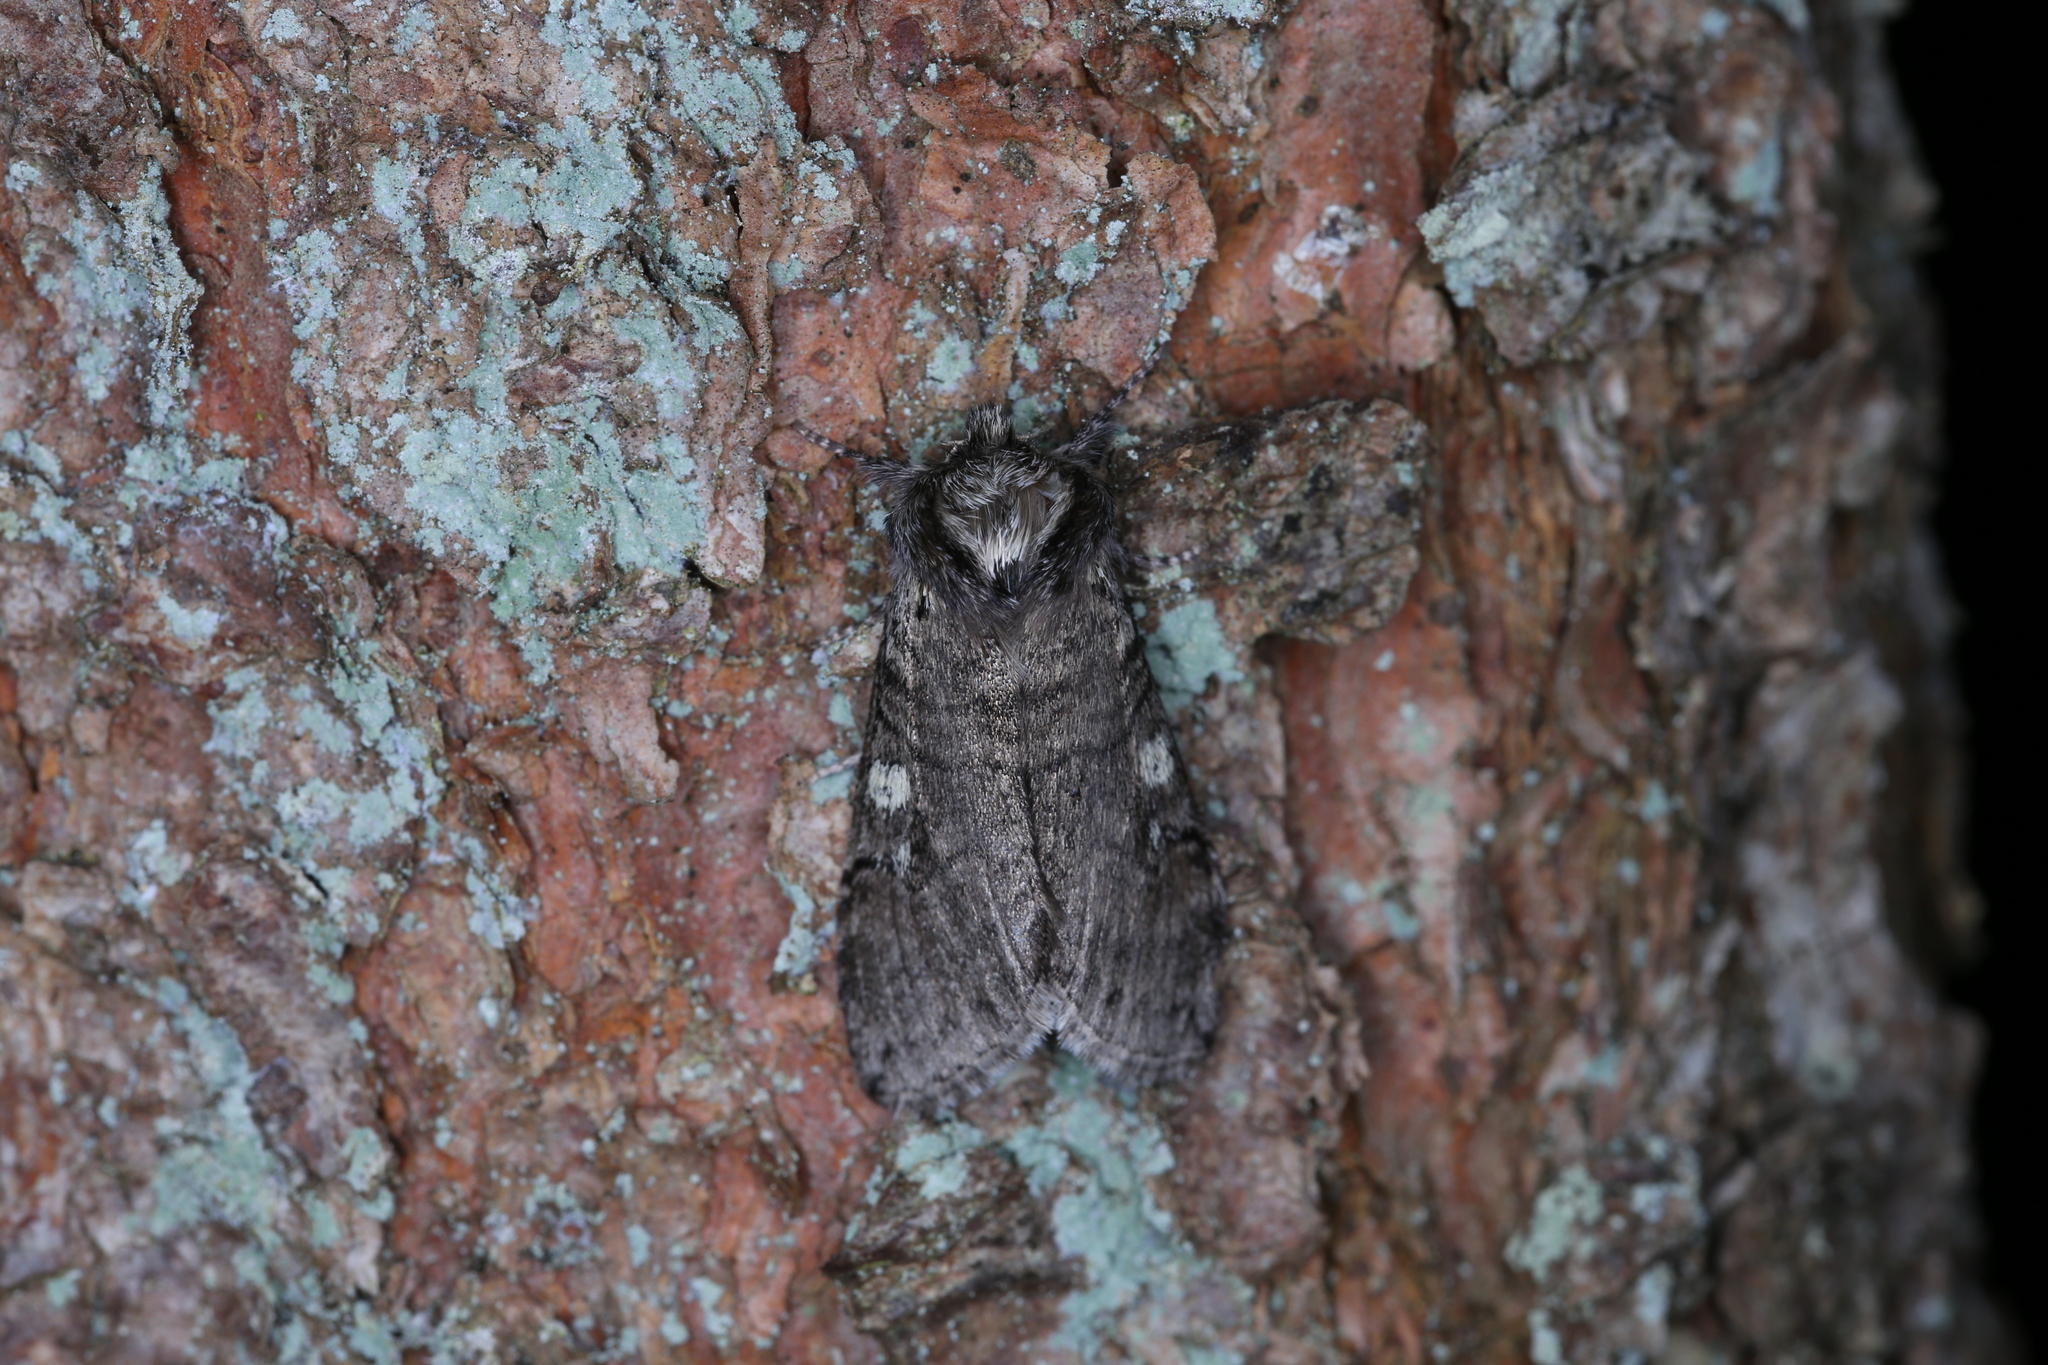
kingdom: Animalia
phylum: Arthropoda
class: Insecta
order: Lepidoptera
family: Drepanidae
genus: Achlya
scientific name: Achlya flavicornis
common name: Yellow horned
